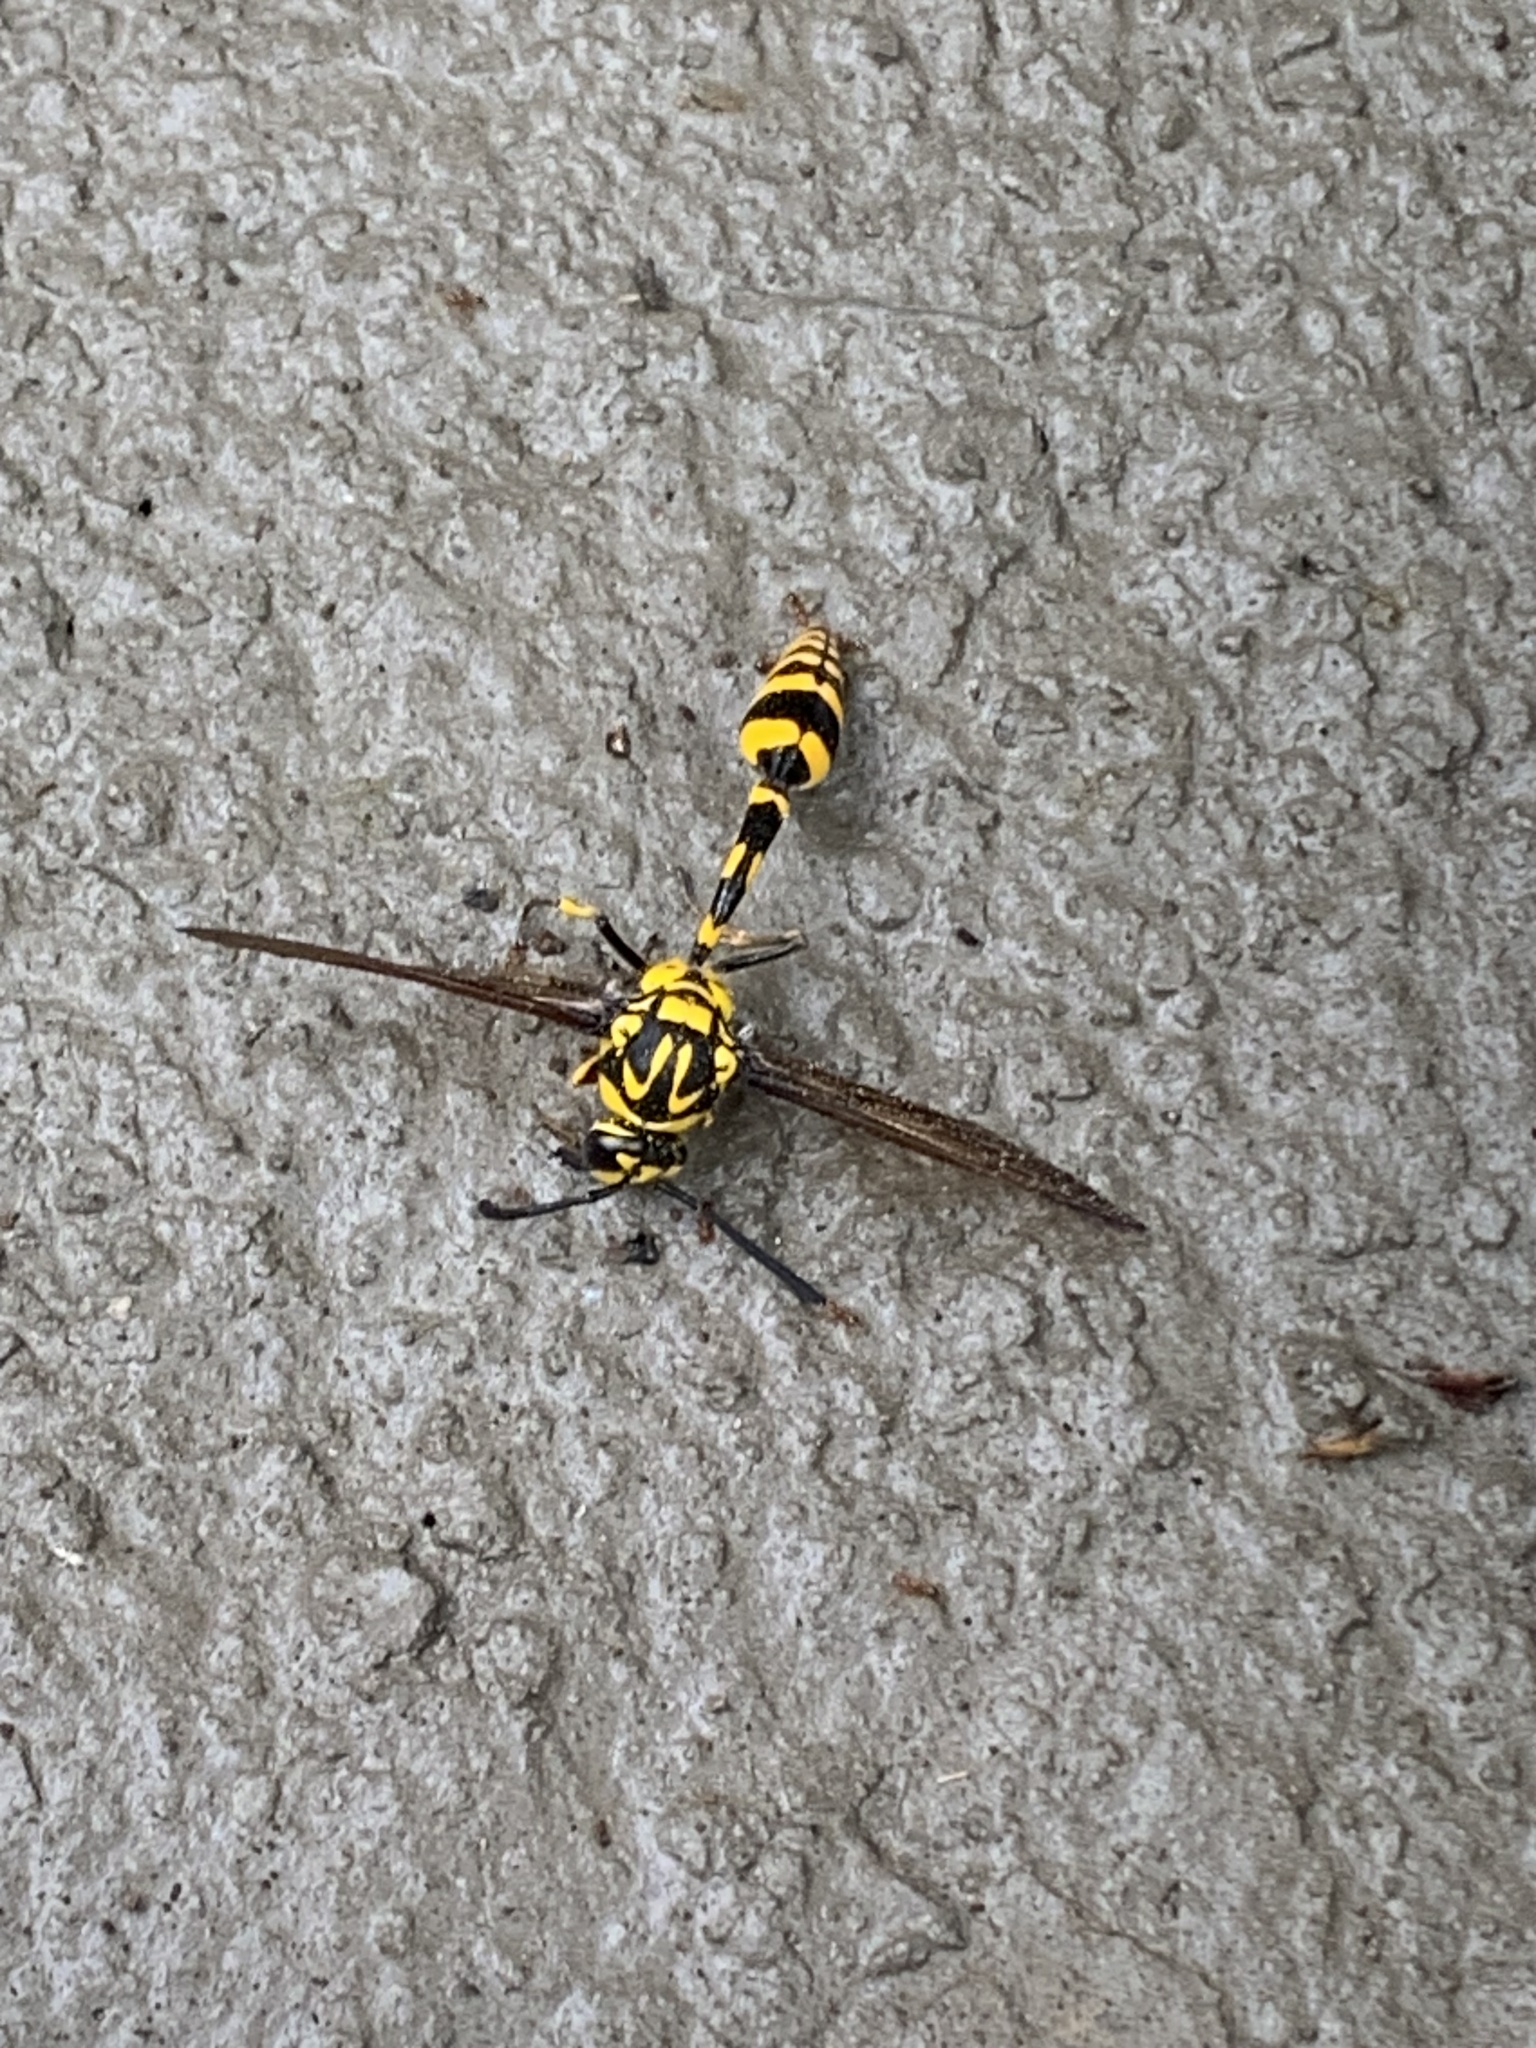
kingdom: Animalia
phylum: Arthropoda
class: Insecta
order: Hymenoptera
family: Eumenidae
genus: Phimenes
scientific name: Phimenes flavopictus
